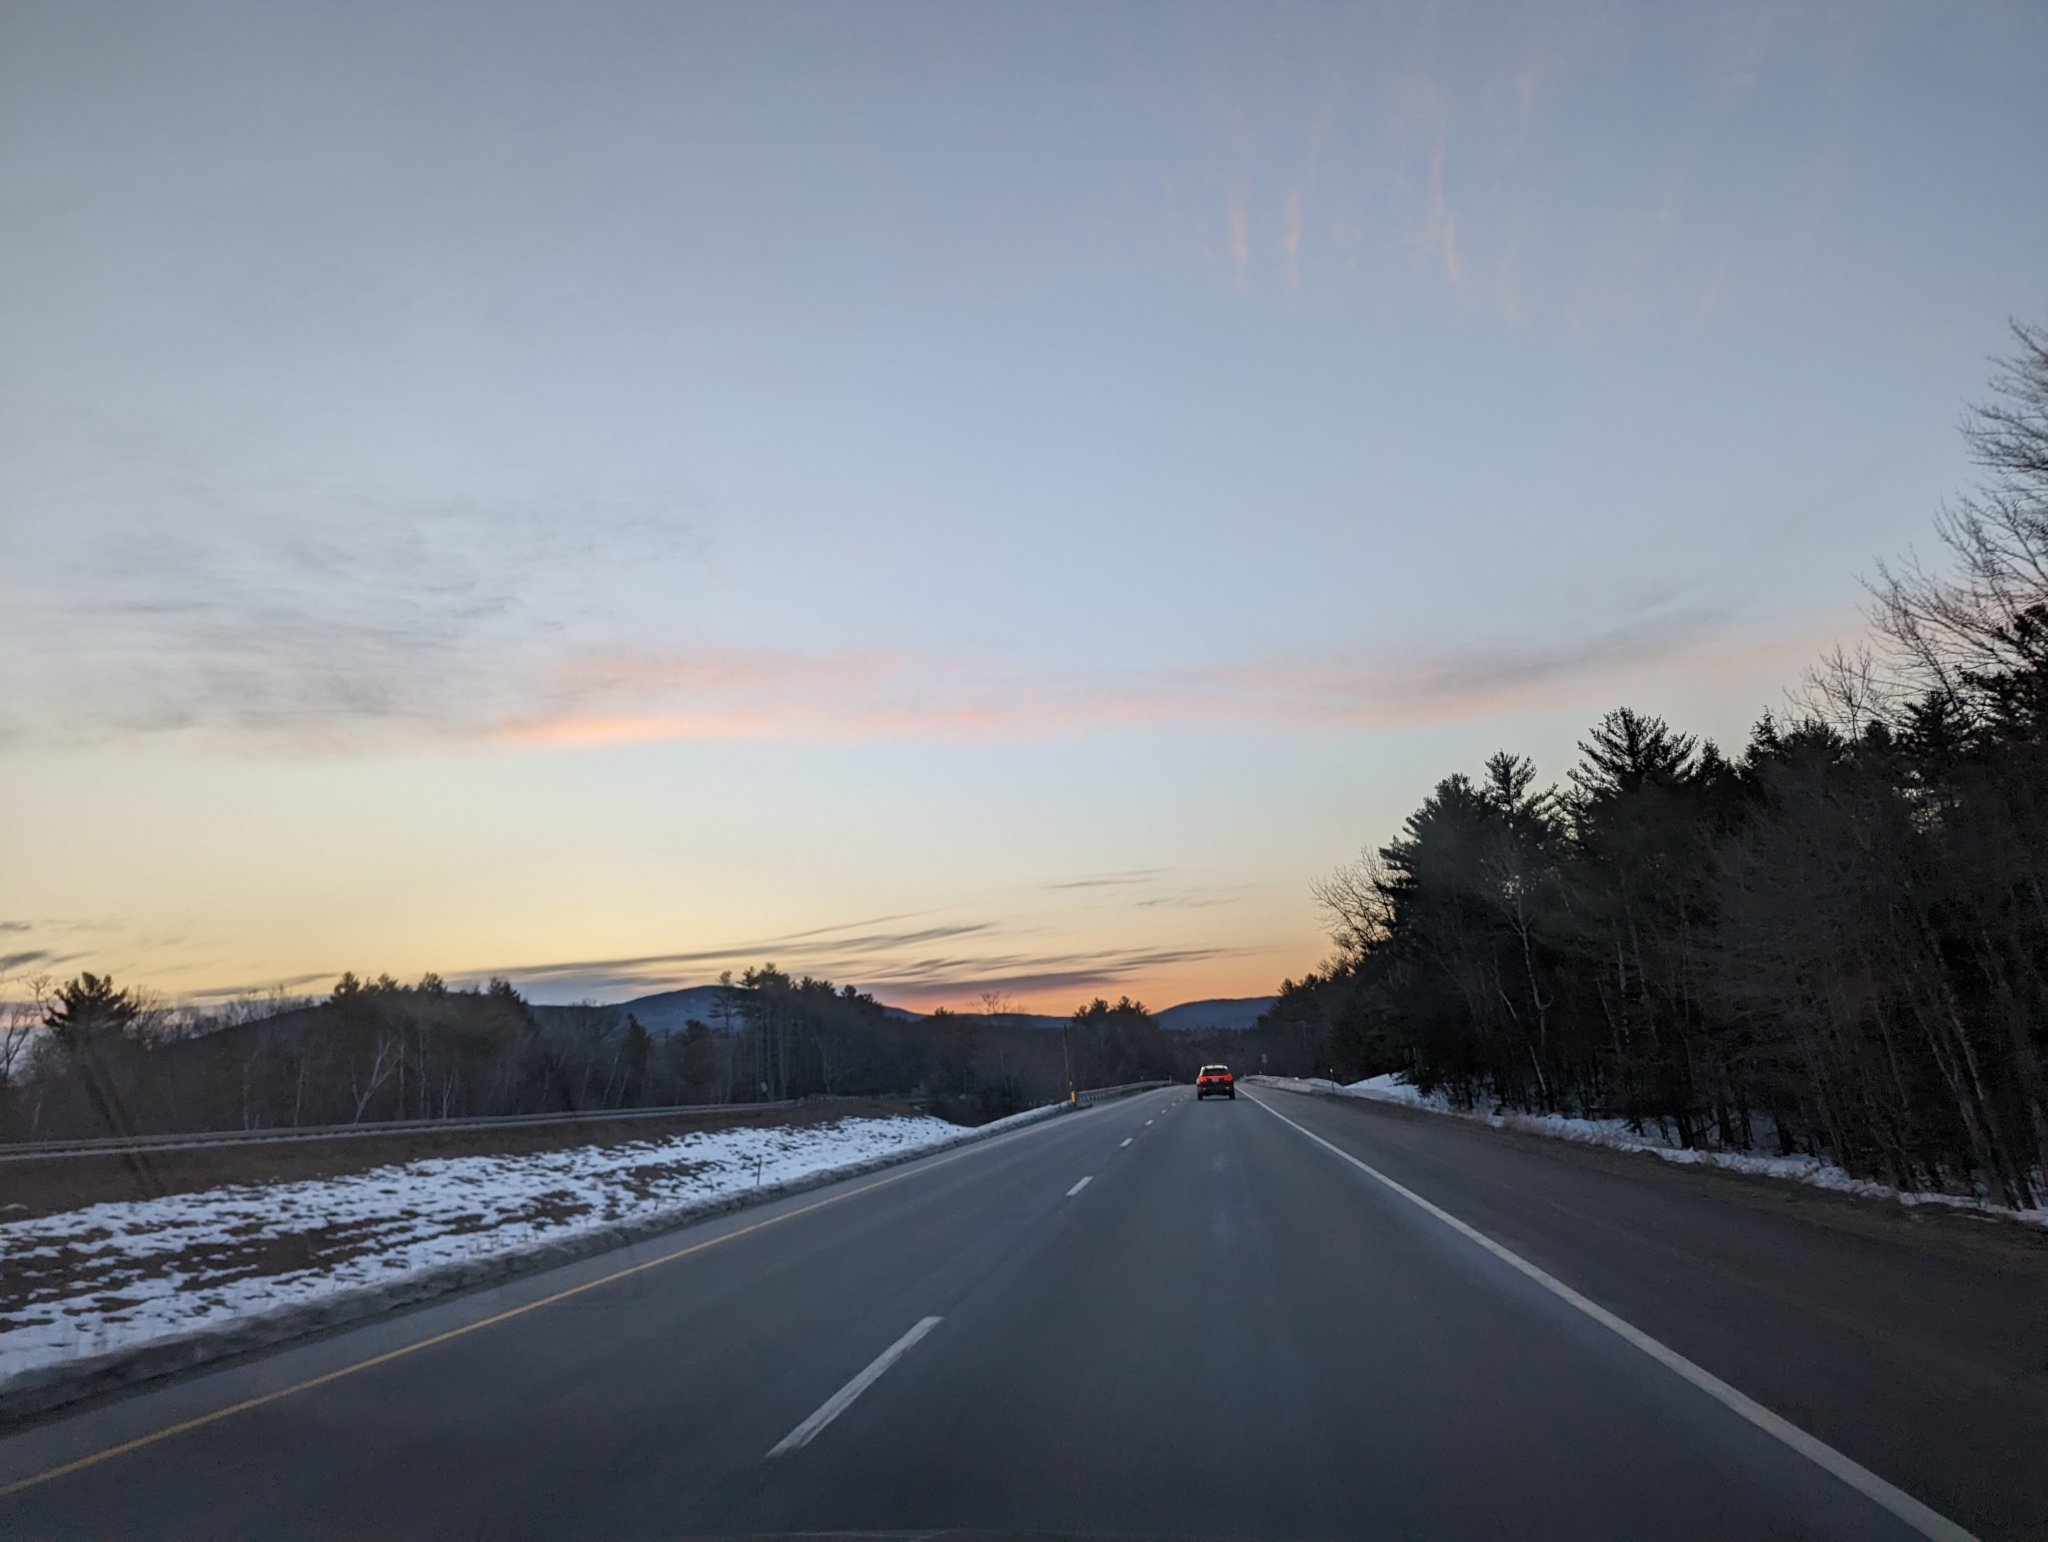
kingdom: Plantae
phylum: Tracheophyta
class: Pinopsida
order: Pinales
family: Pinaceae
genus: Pinus
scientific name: Pinus strobus
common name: Weymouth pine
